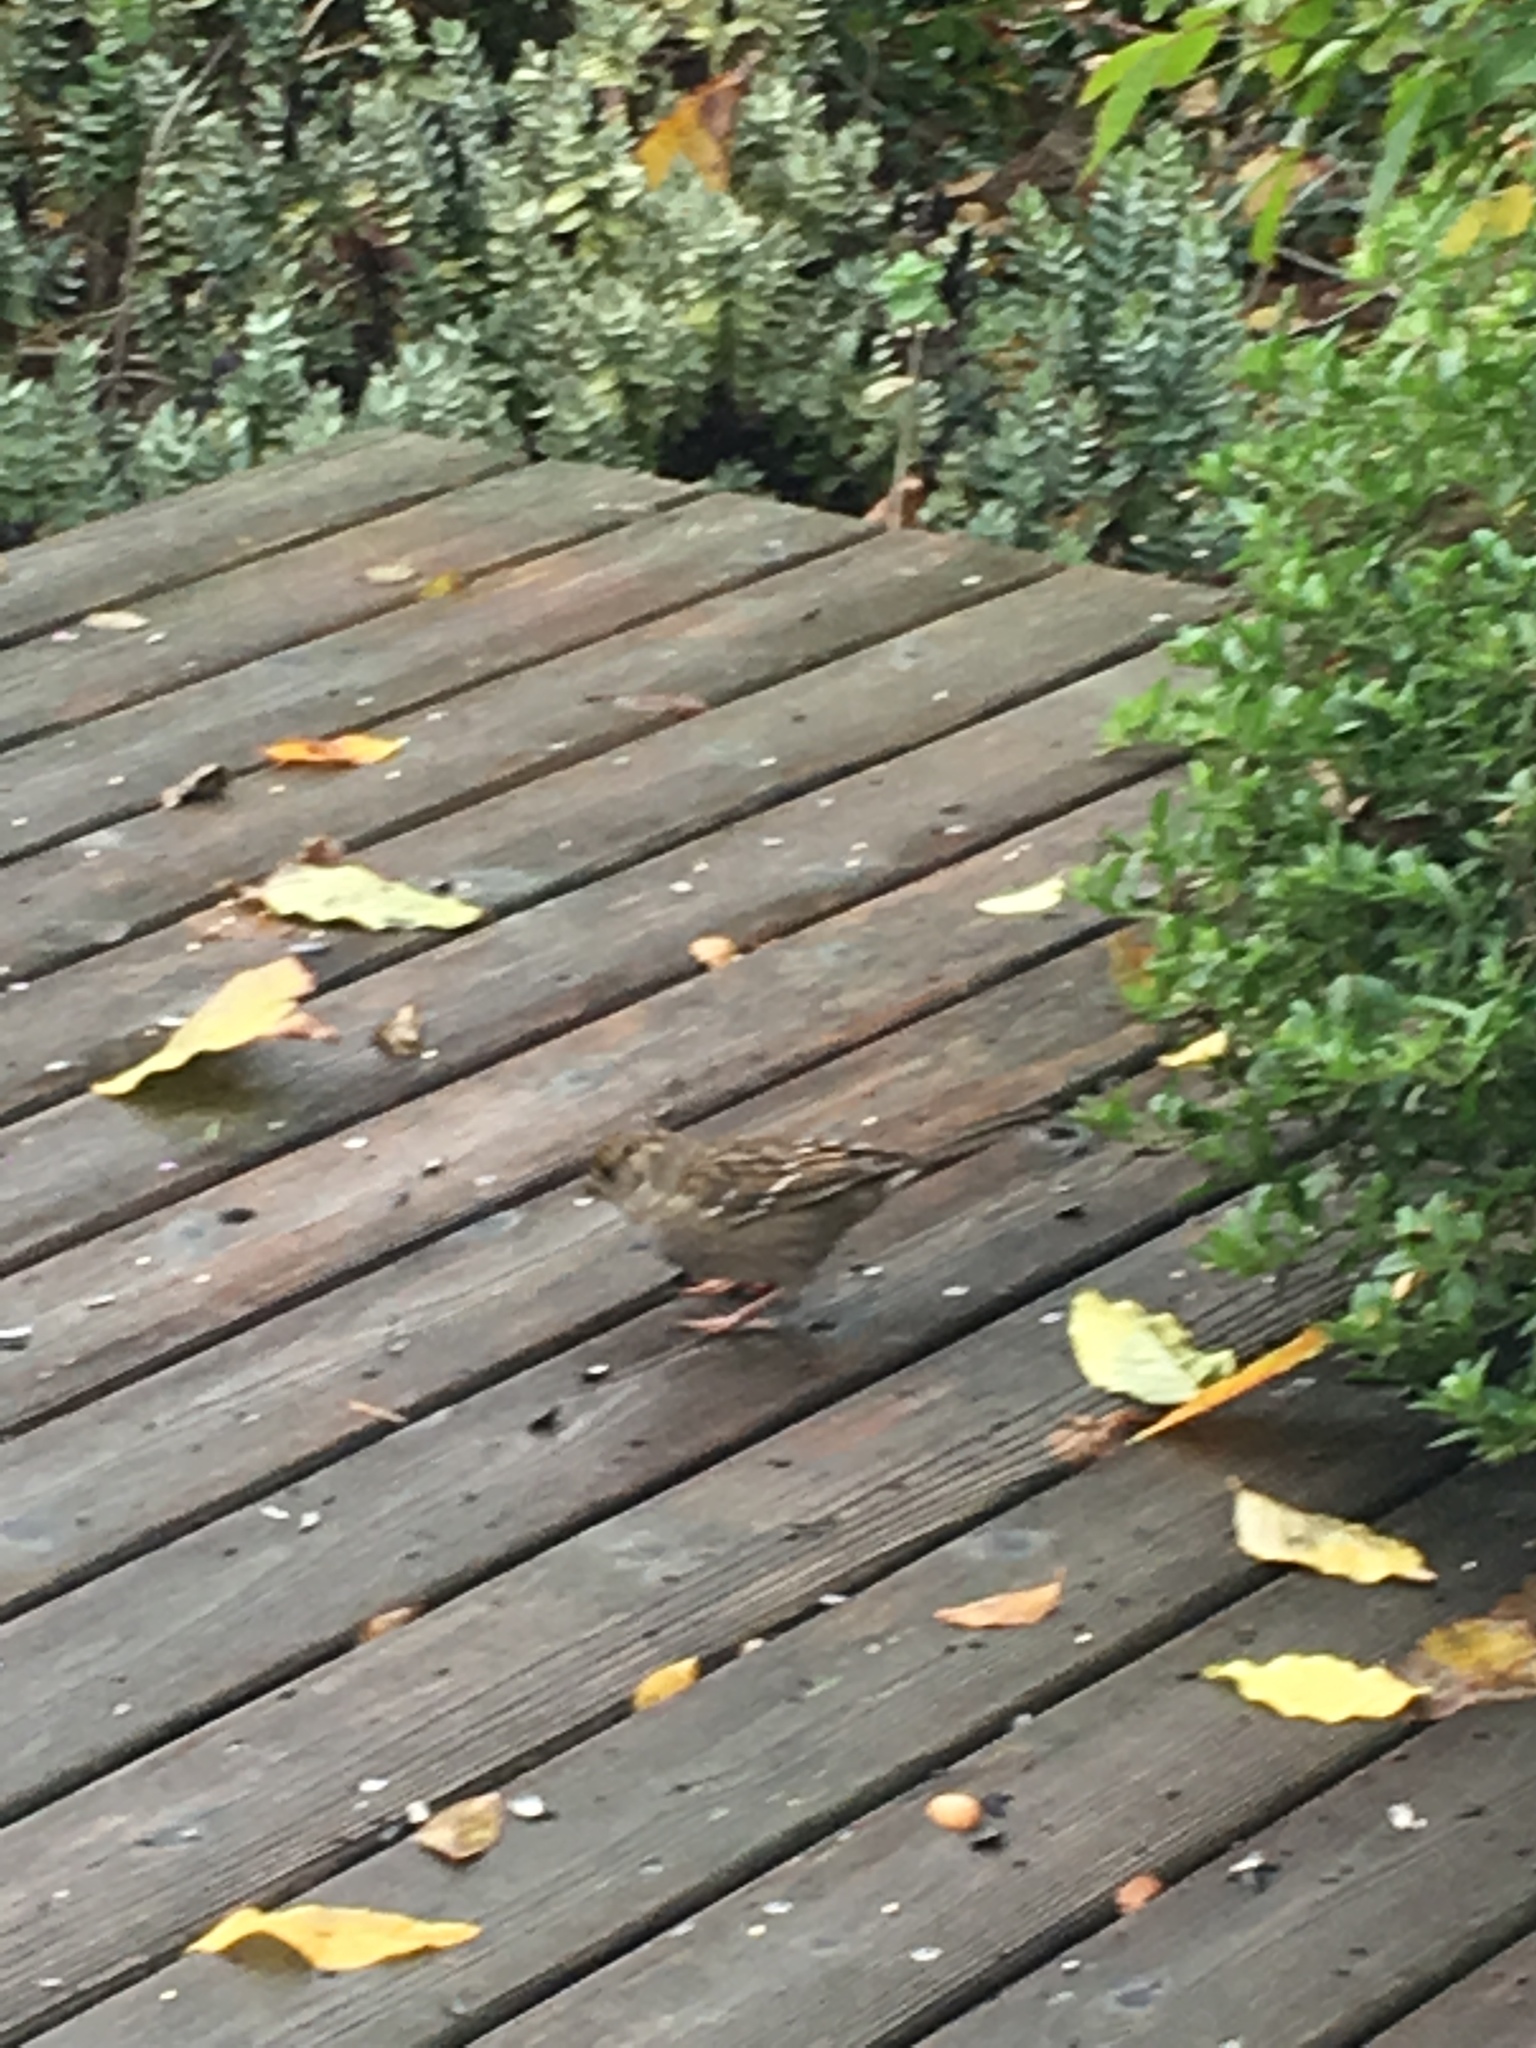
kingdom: Animalia
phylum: Chordata
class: Aves
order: Passeriformes
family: Passerellidae
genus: Zonotrichia
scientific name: Zonotrichia atricapilla
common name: Golden-crowned sparrow
